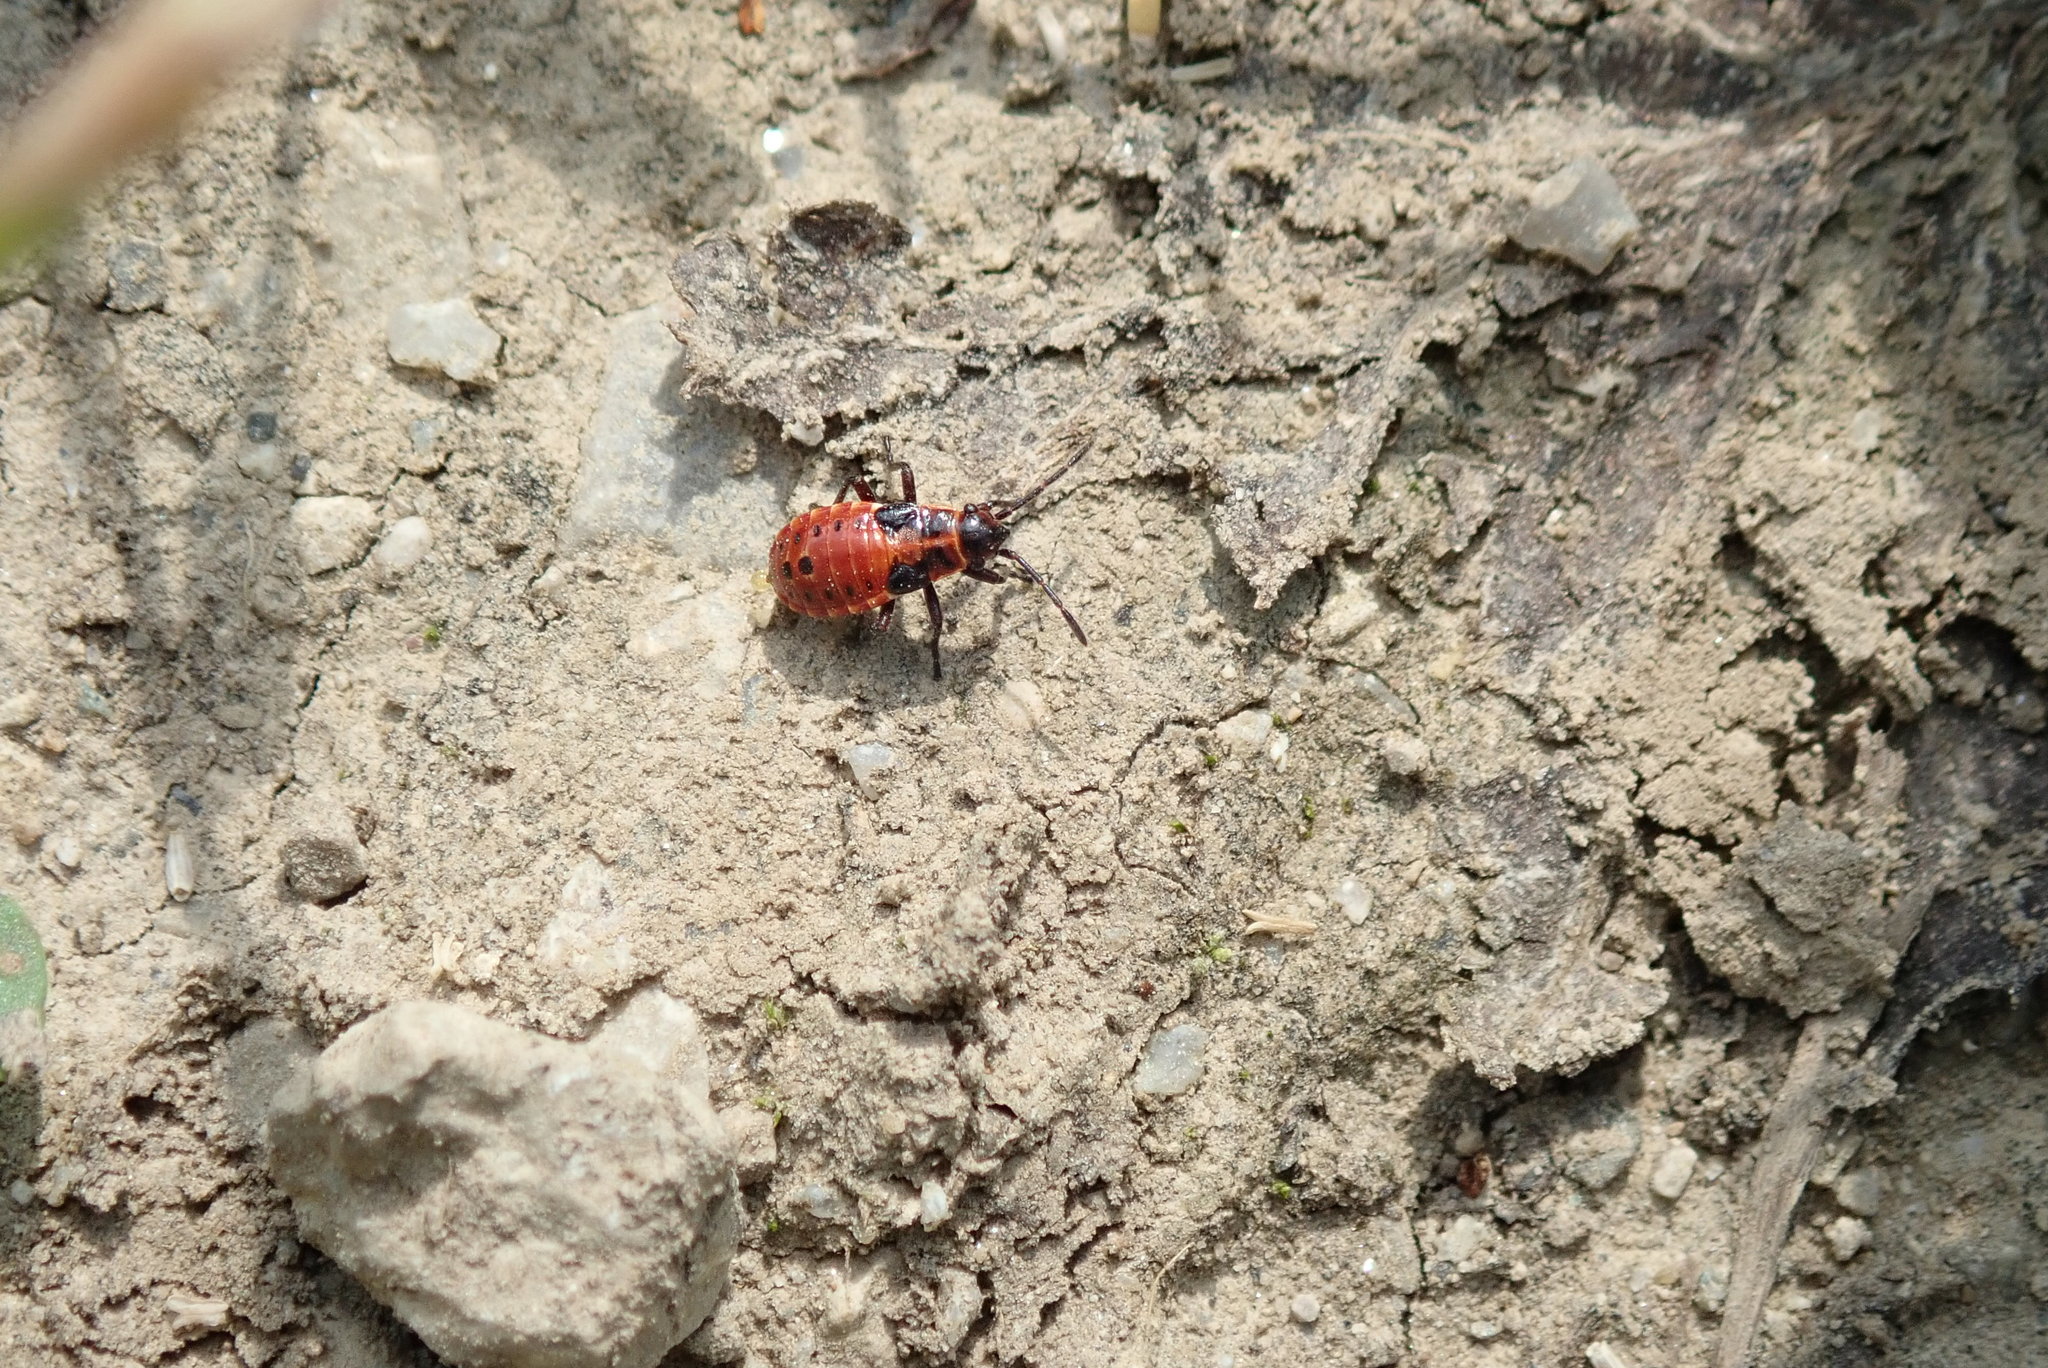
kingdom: Animalia
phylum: Arthropoda
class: Insecta
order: Hemiptera
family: Lygaeidae
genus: Spilostethus
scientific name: Spilostethus saxatilis
